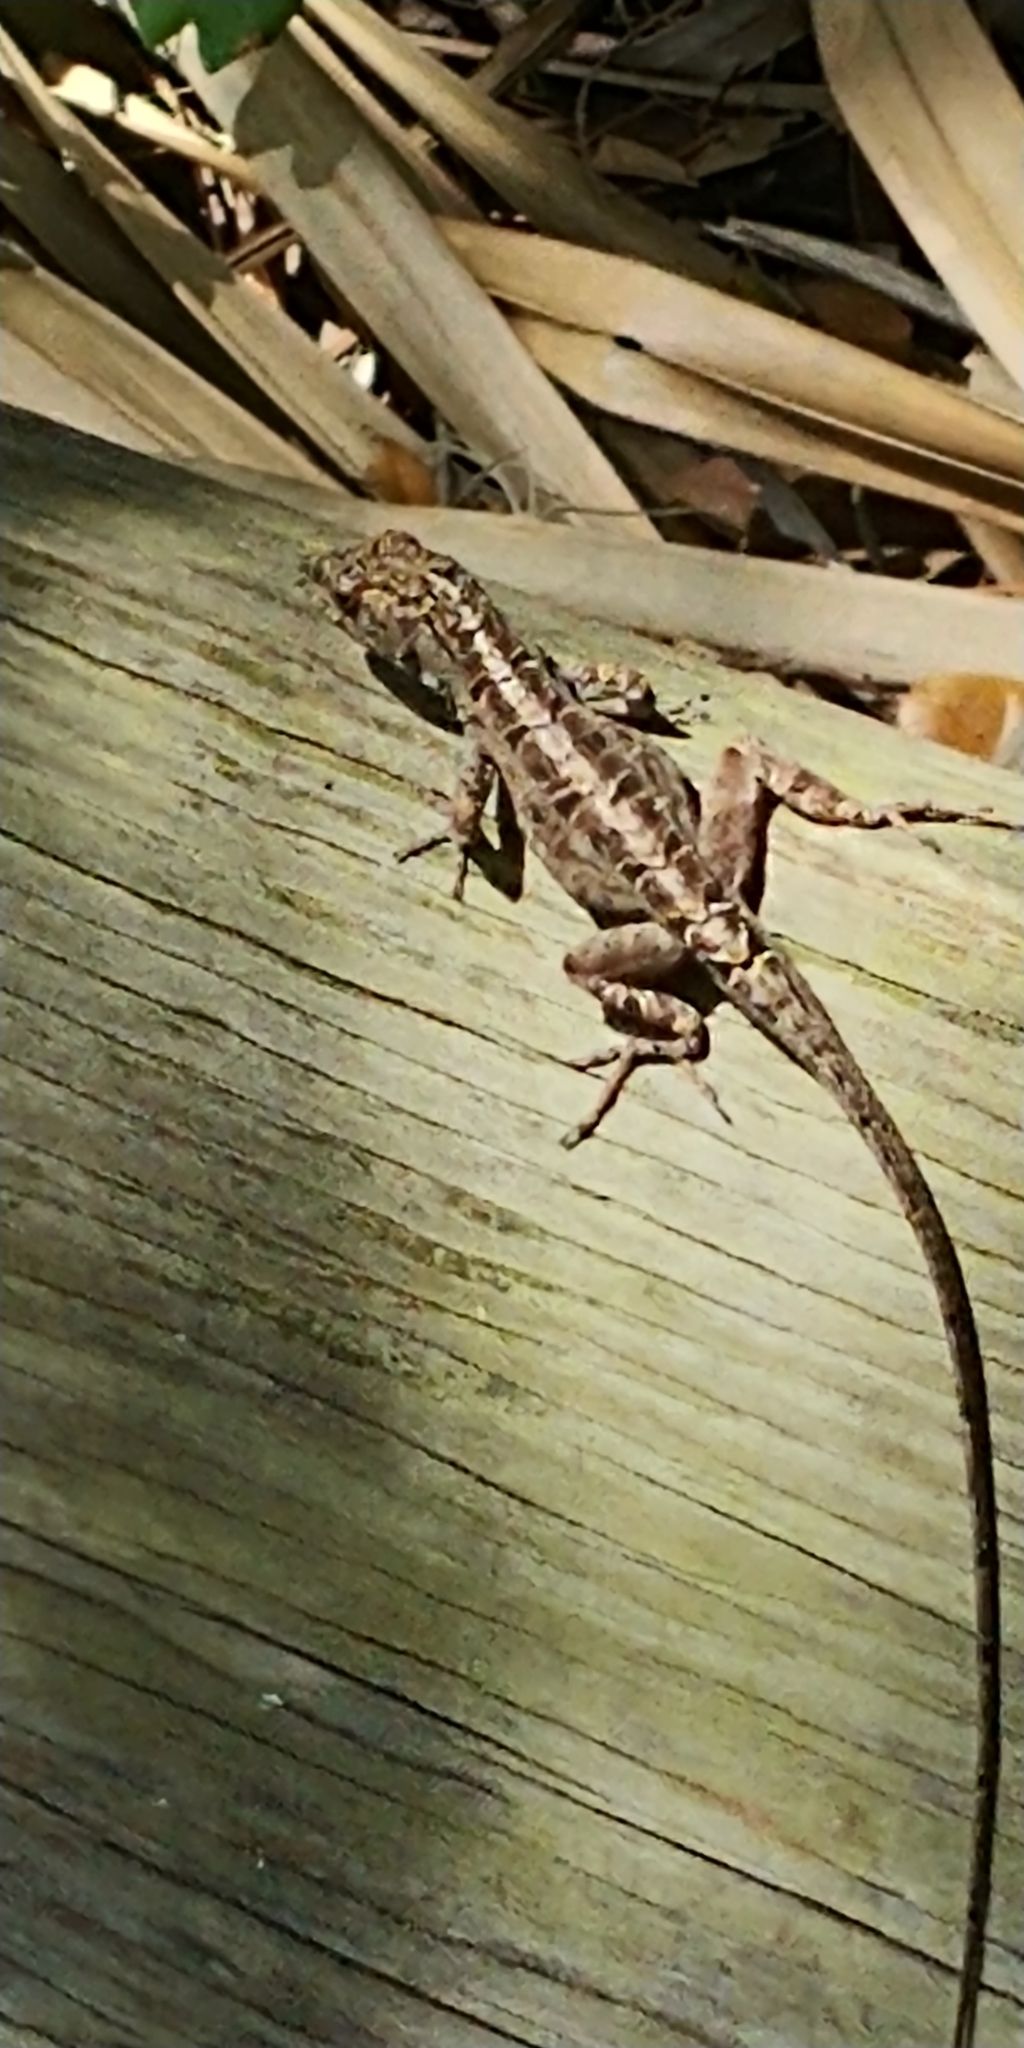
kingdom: Animalia
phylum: Chordata
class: Squamata
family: Dactyloidae
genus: Anolis
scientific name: Anolis sagrei
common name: Brown anole
